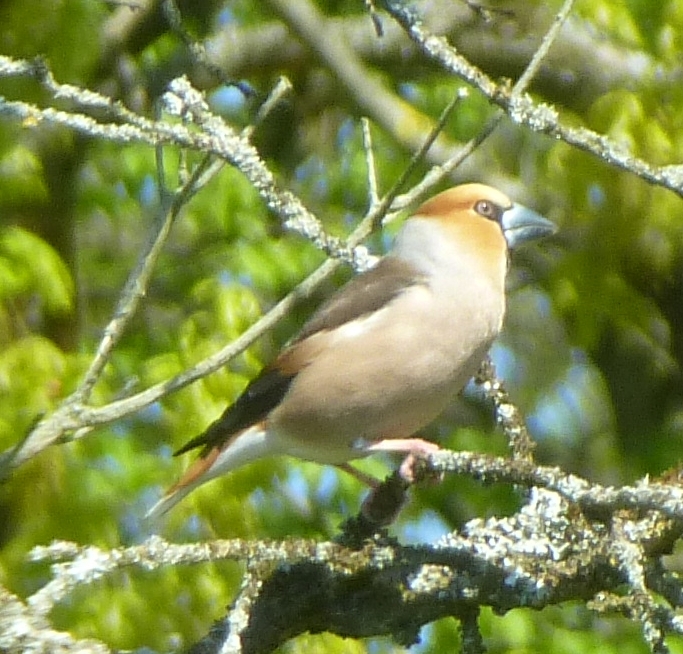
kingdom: Animalia
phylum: Chordata
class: Aves
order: Passeriformes
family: Fringillidae
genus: Coccothraustes
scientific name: Coccothraustes coccothraustes
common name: Hawfinch
